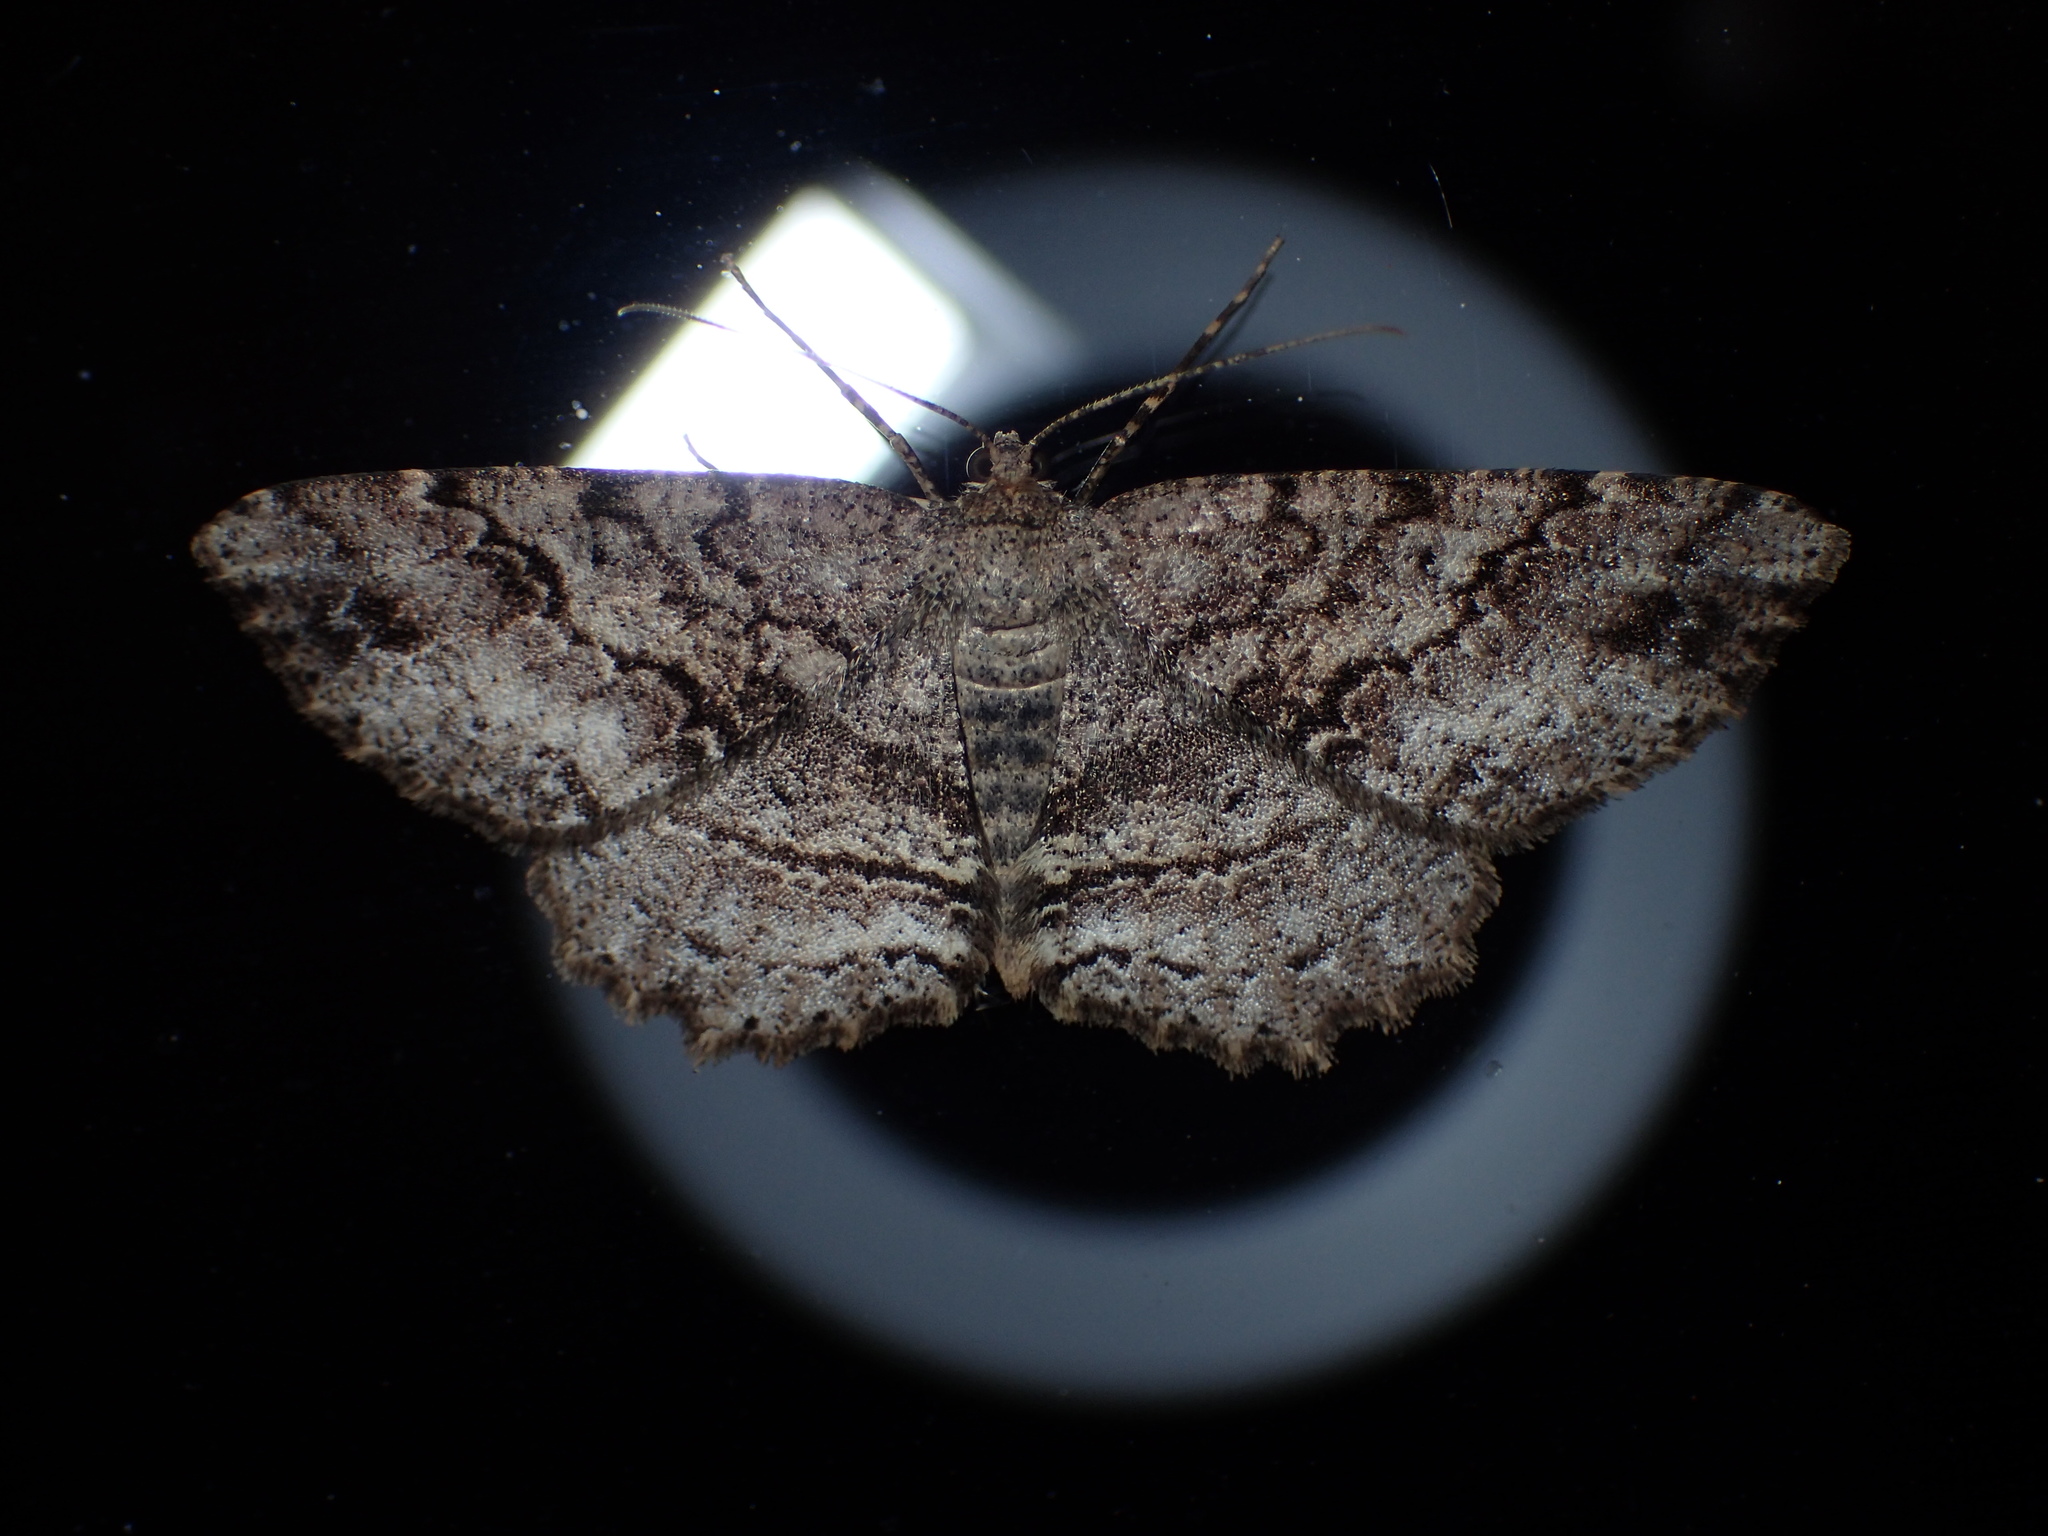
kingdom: Animalia
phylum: Arthropoda
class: Insecta
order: Lepidoptera
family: Geometridae
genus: Melanolophia
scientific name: Melanolophia canadaria
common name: Canadian melanolophia
